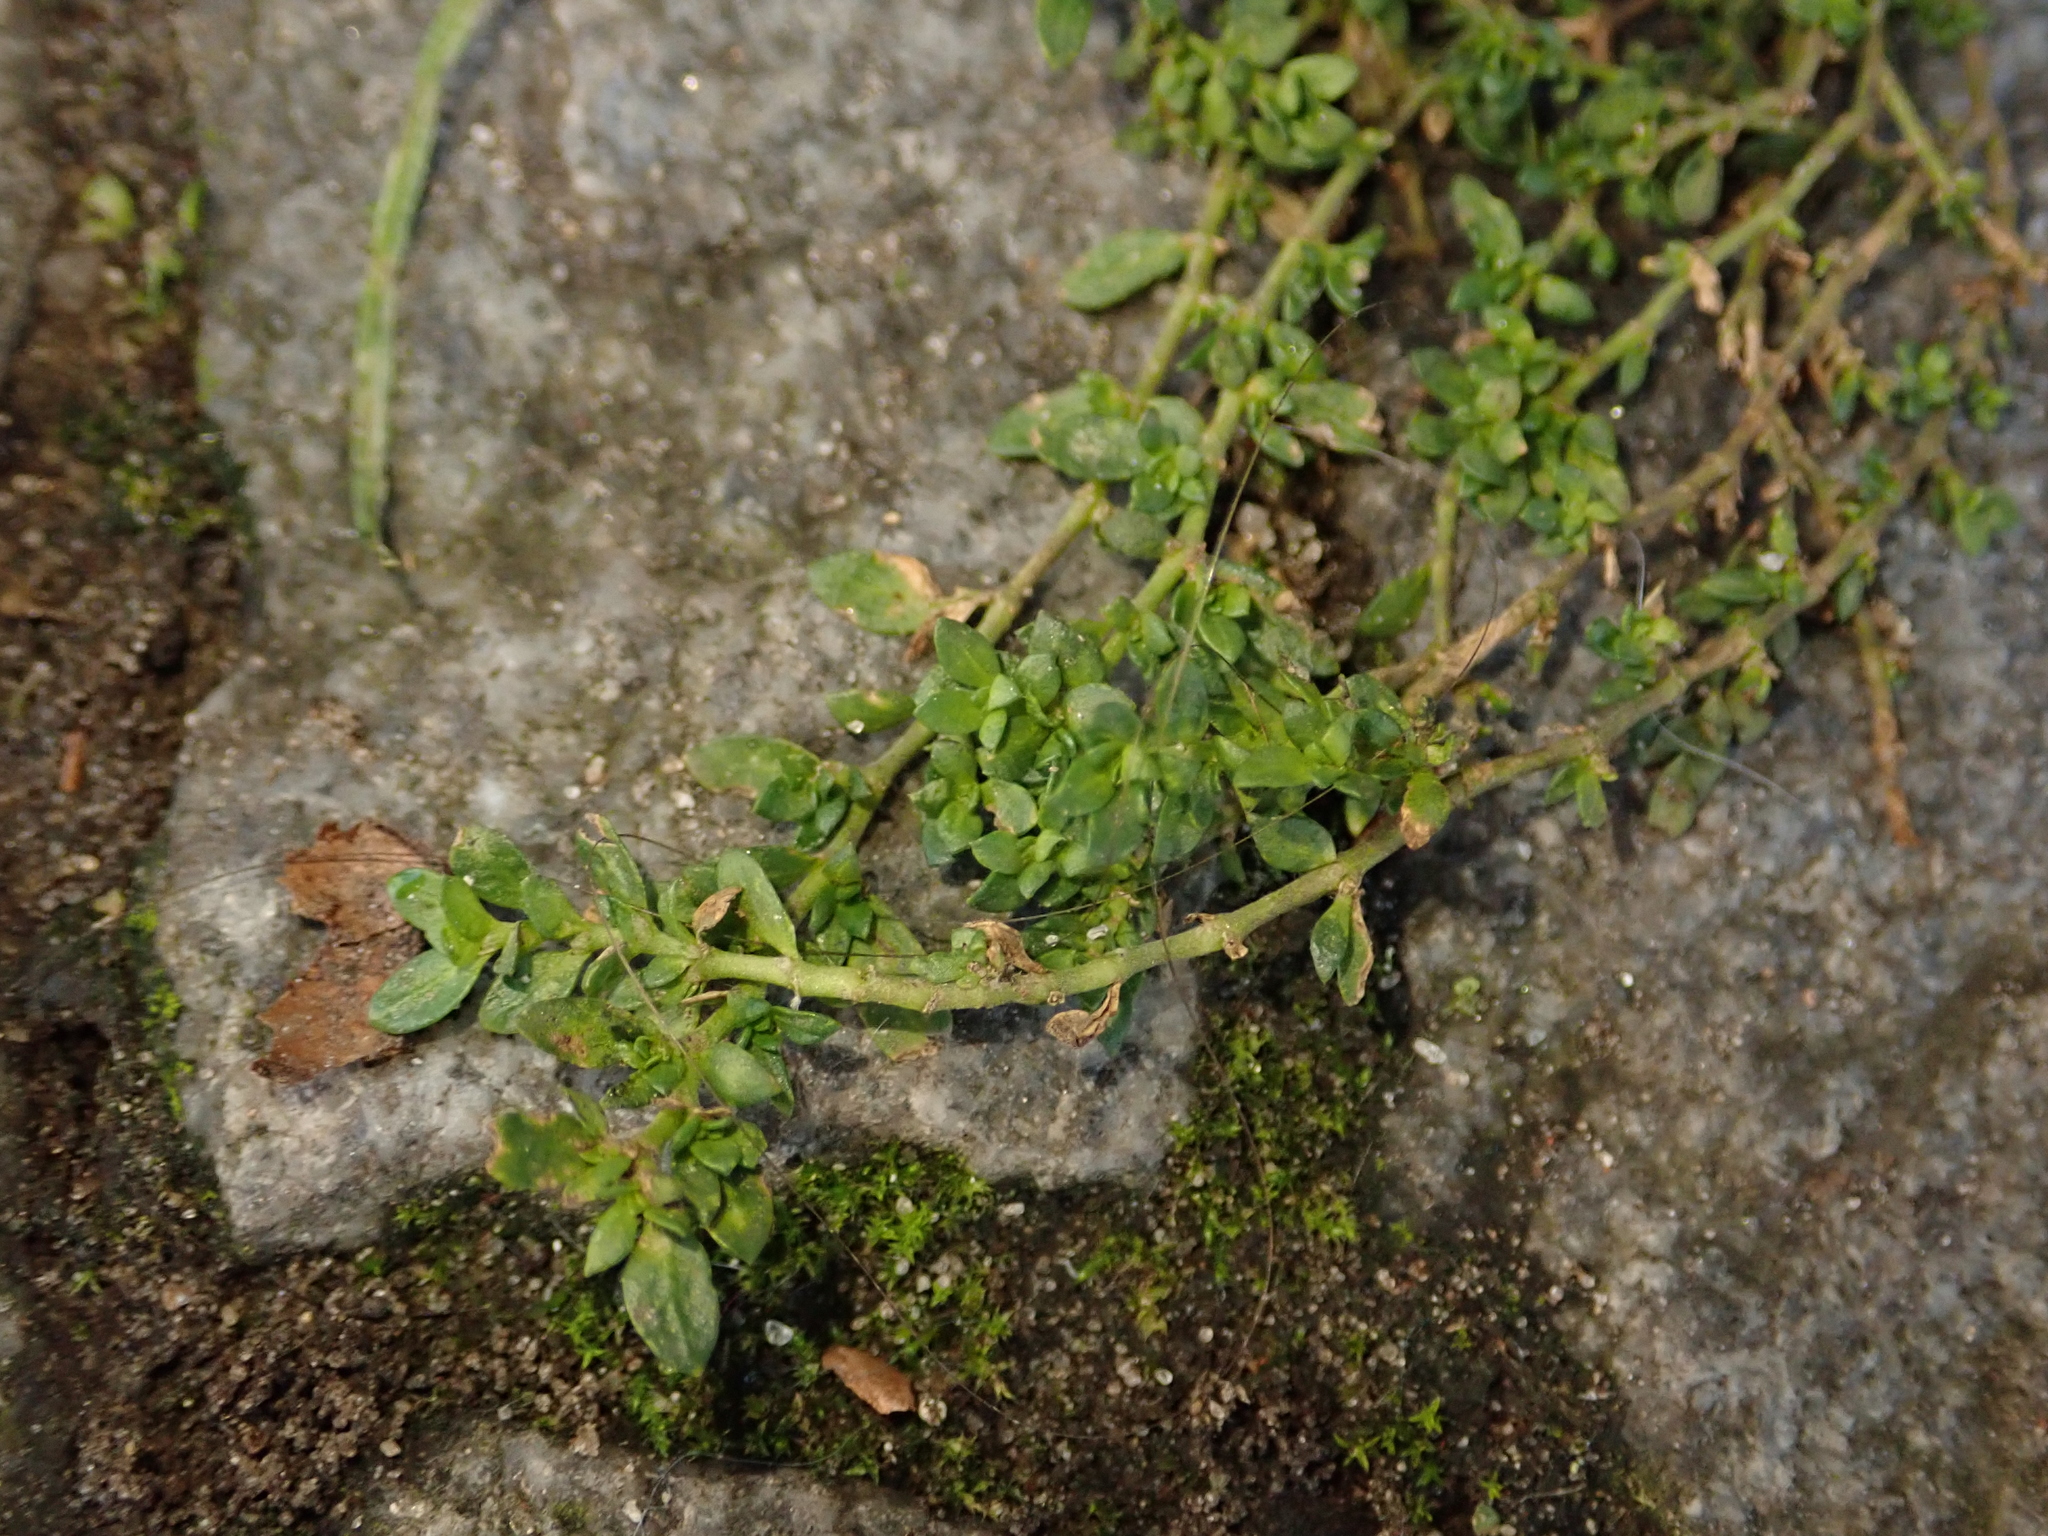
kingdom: Plantae
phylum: Tracheophyta
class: Magnoliopsida
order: Caryophyllales
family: Caryophyllaceae
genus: Herniaria
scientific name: Herniaria glabra
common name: Smooth rupturewort
